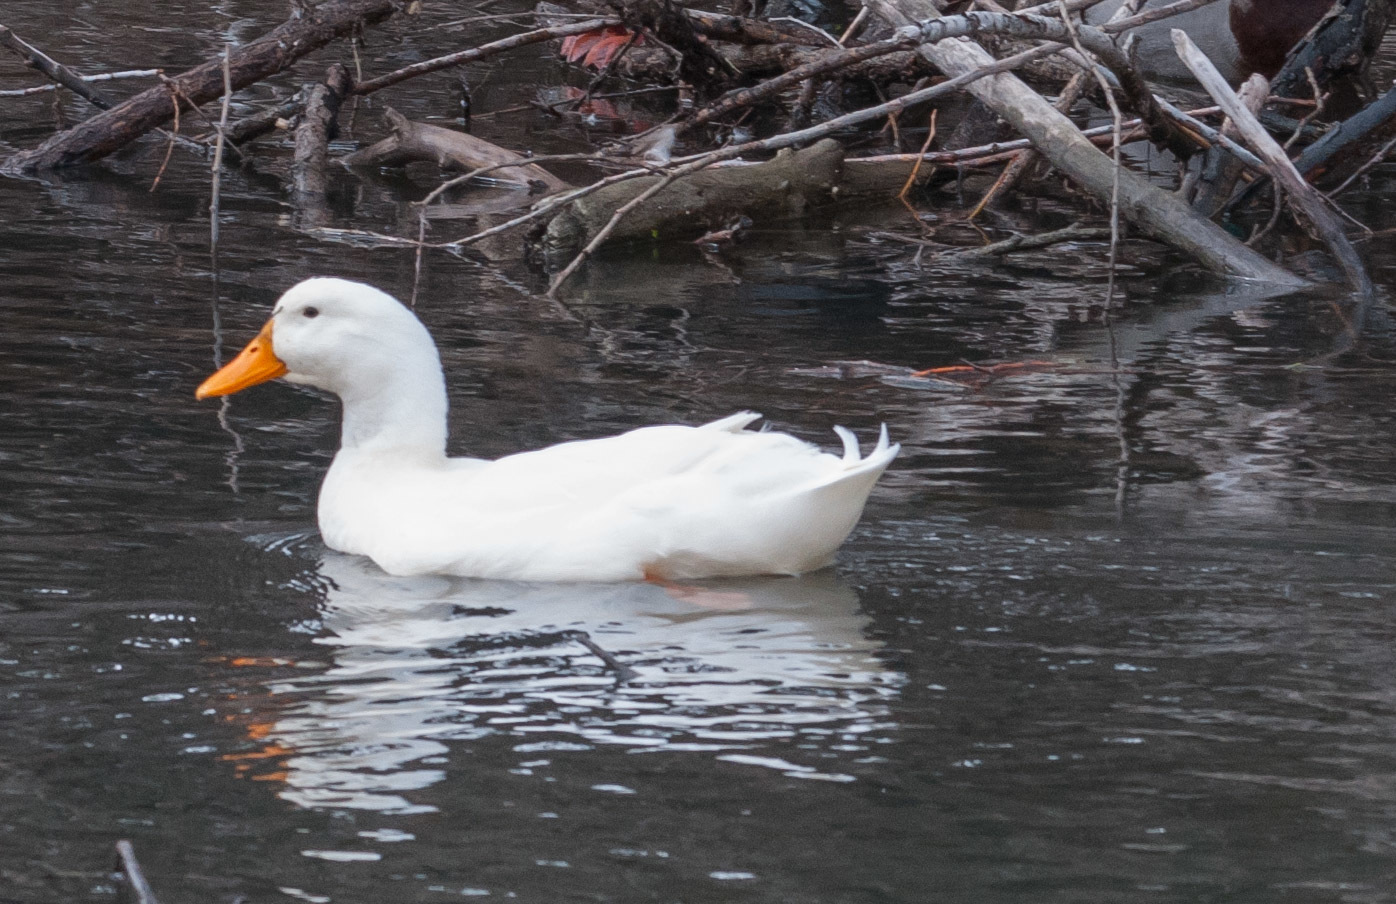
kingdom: Animalia
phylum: Chordata
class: Aves
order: Anseriformes
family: Anatidae
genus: Anas
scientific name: Anas platyrhynchos
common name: Mallard
